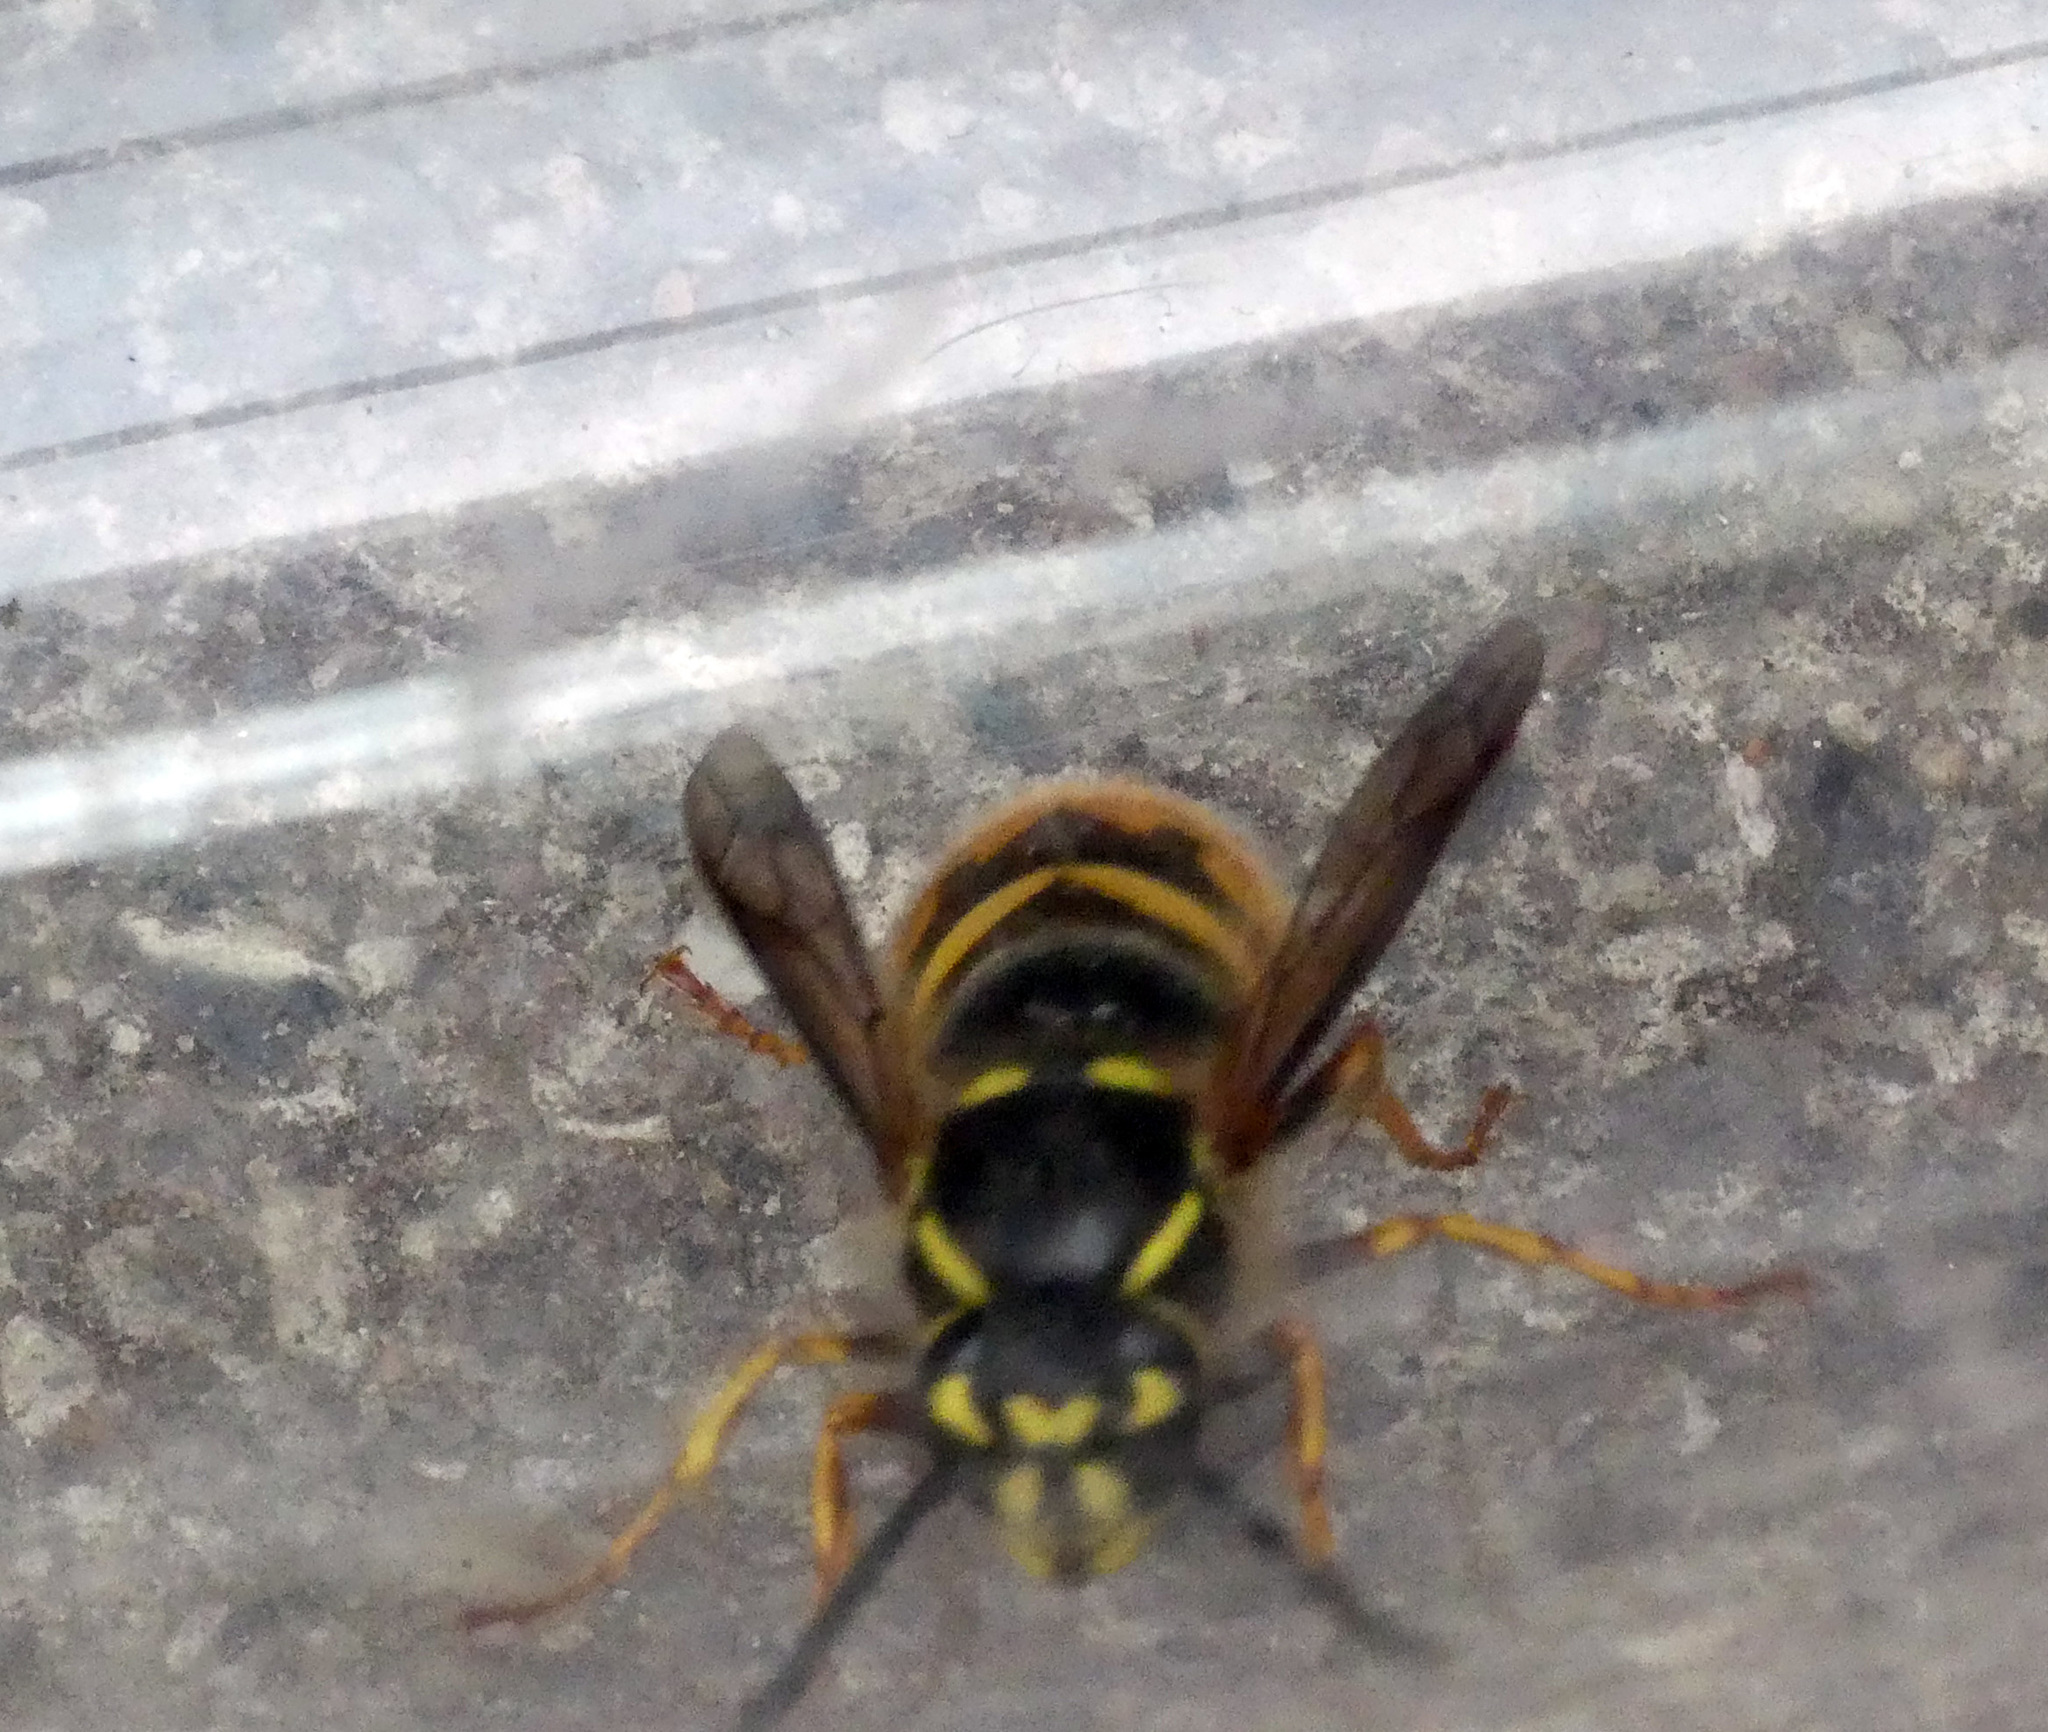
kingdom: Animalia
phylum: Arthropoda
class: Insecta
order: Hymenoptera
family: Vespidae
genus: Vespula
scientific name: Vespula vulgaris
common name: Common wasp
